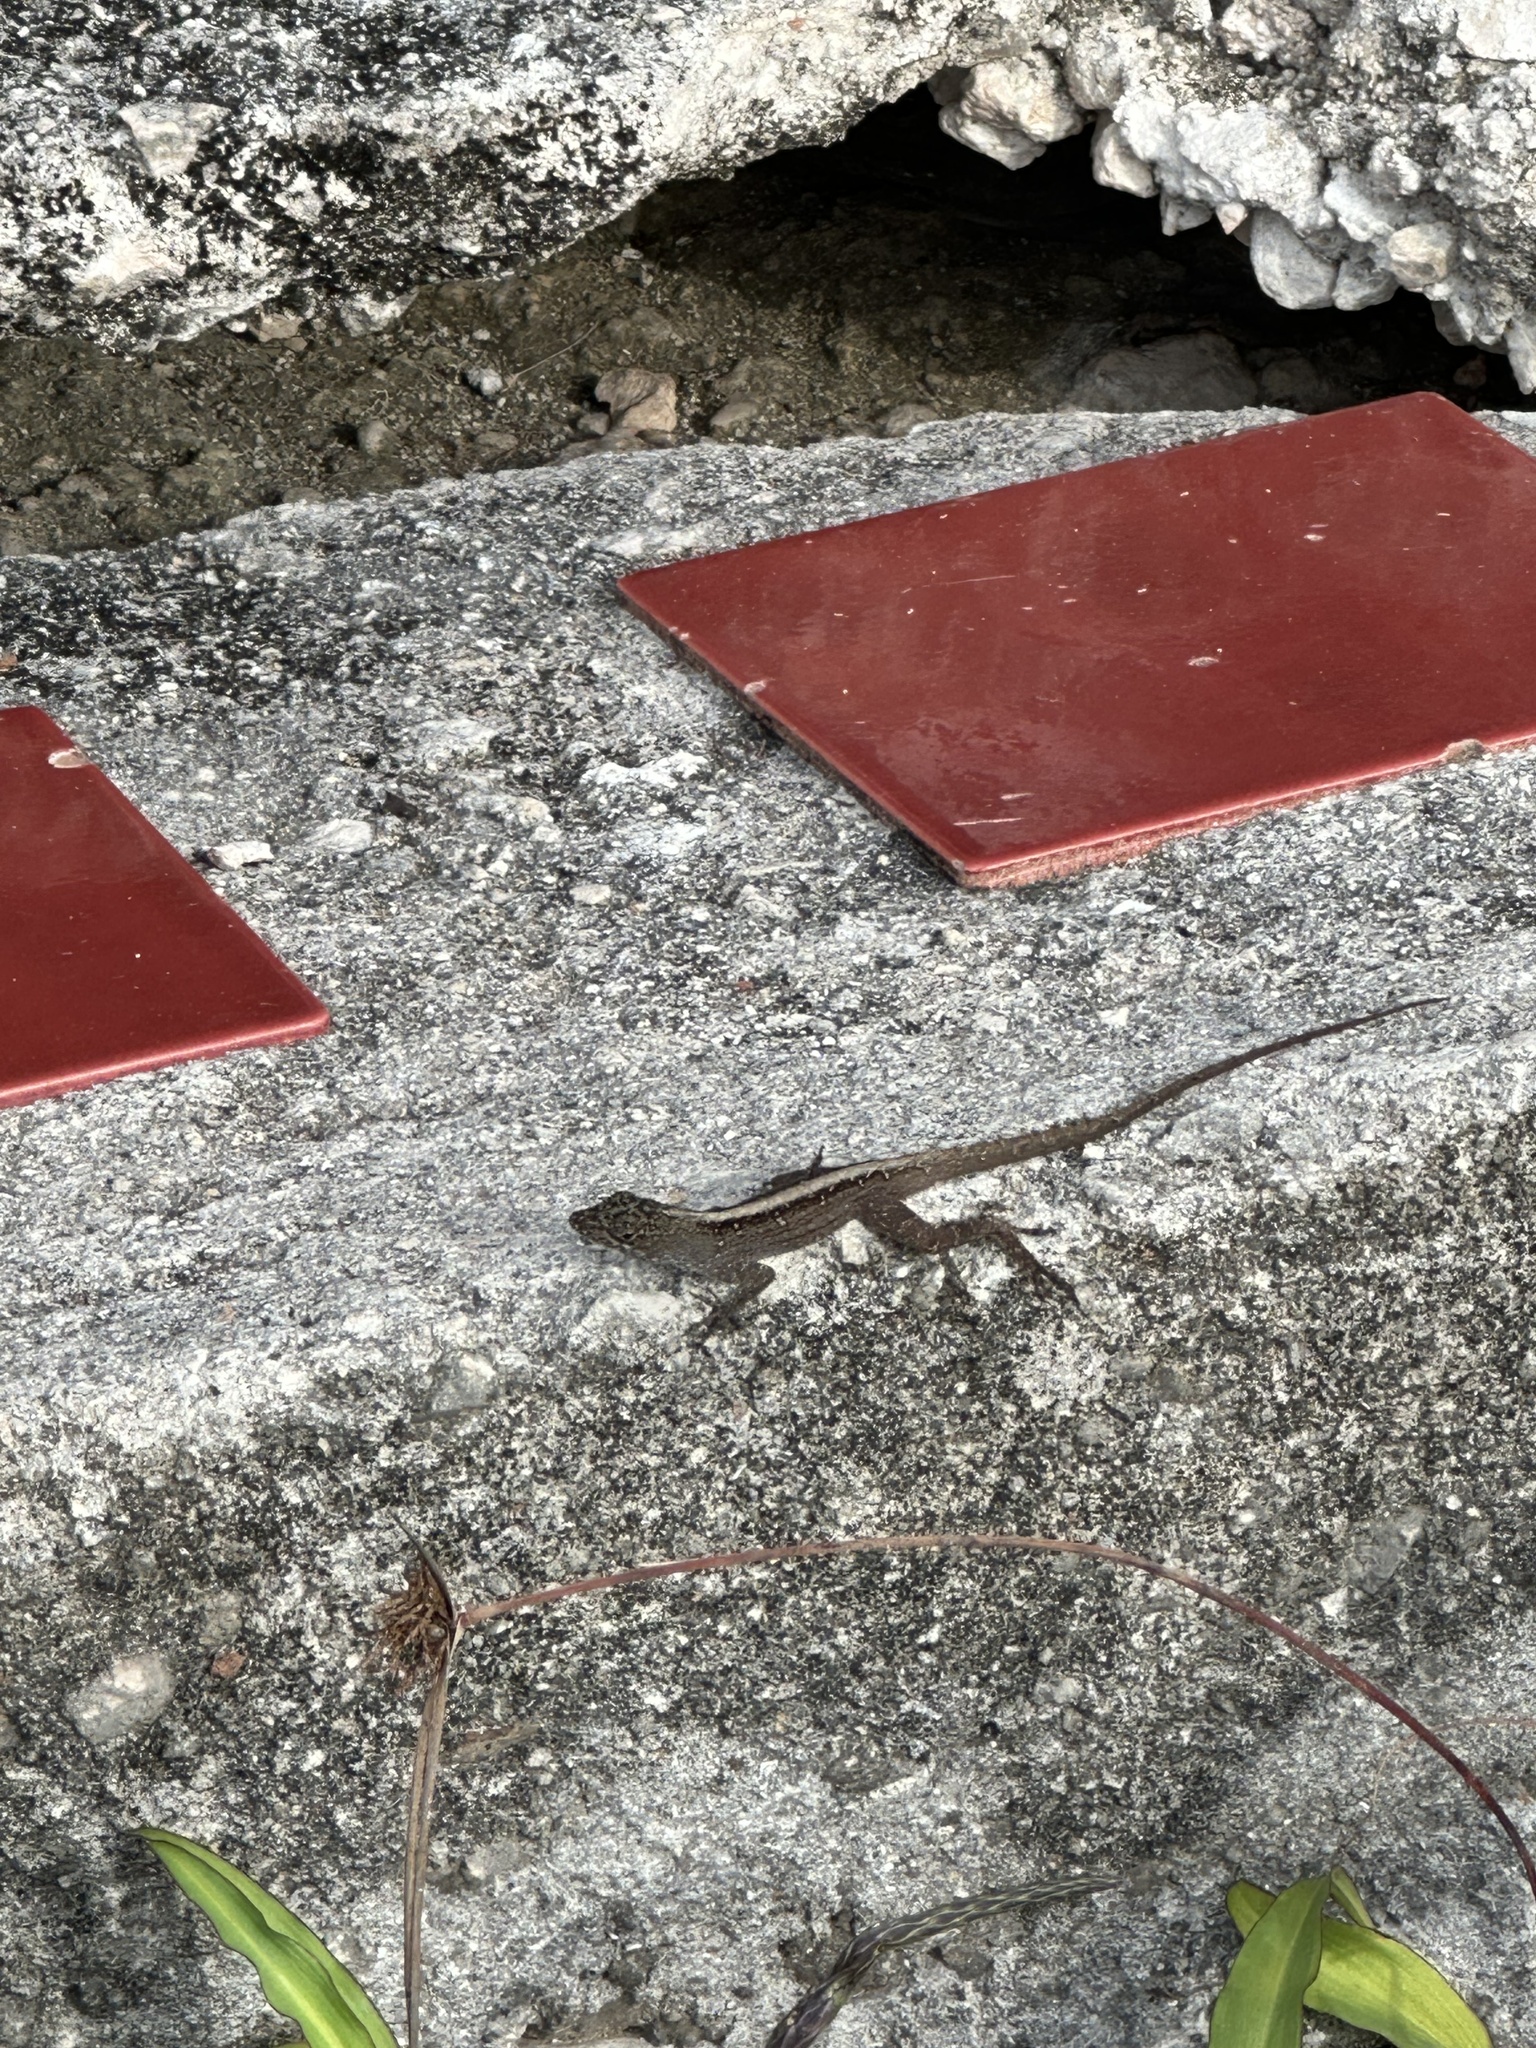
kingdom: Animalia
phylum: Chordata
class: Squamata
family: Dactyloidae
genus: Anolis
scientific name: Anolis sagrei
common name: Brown anole
